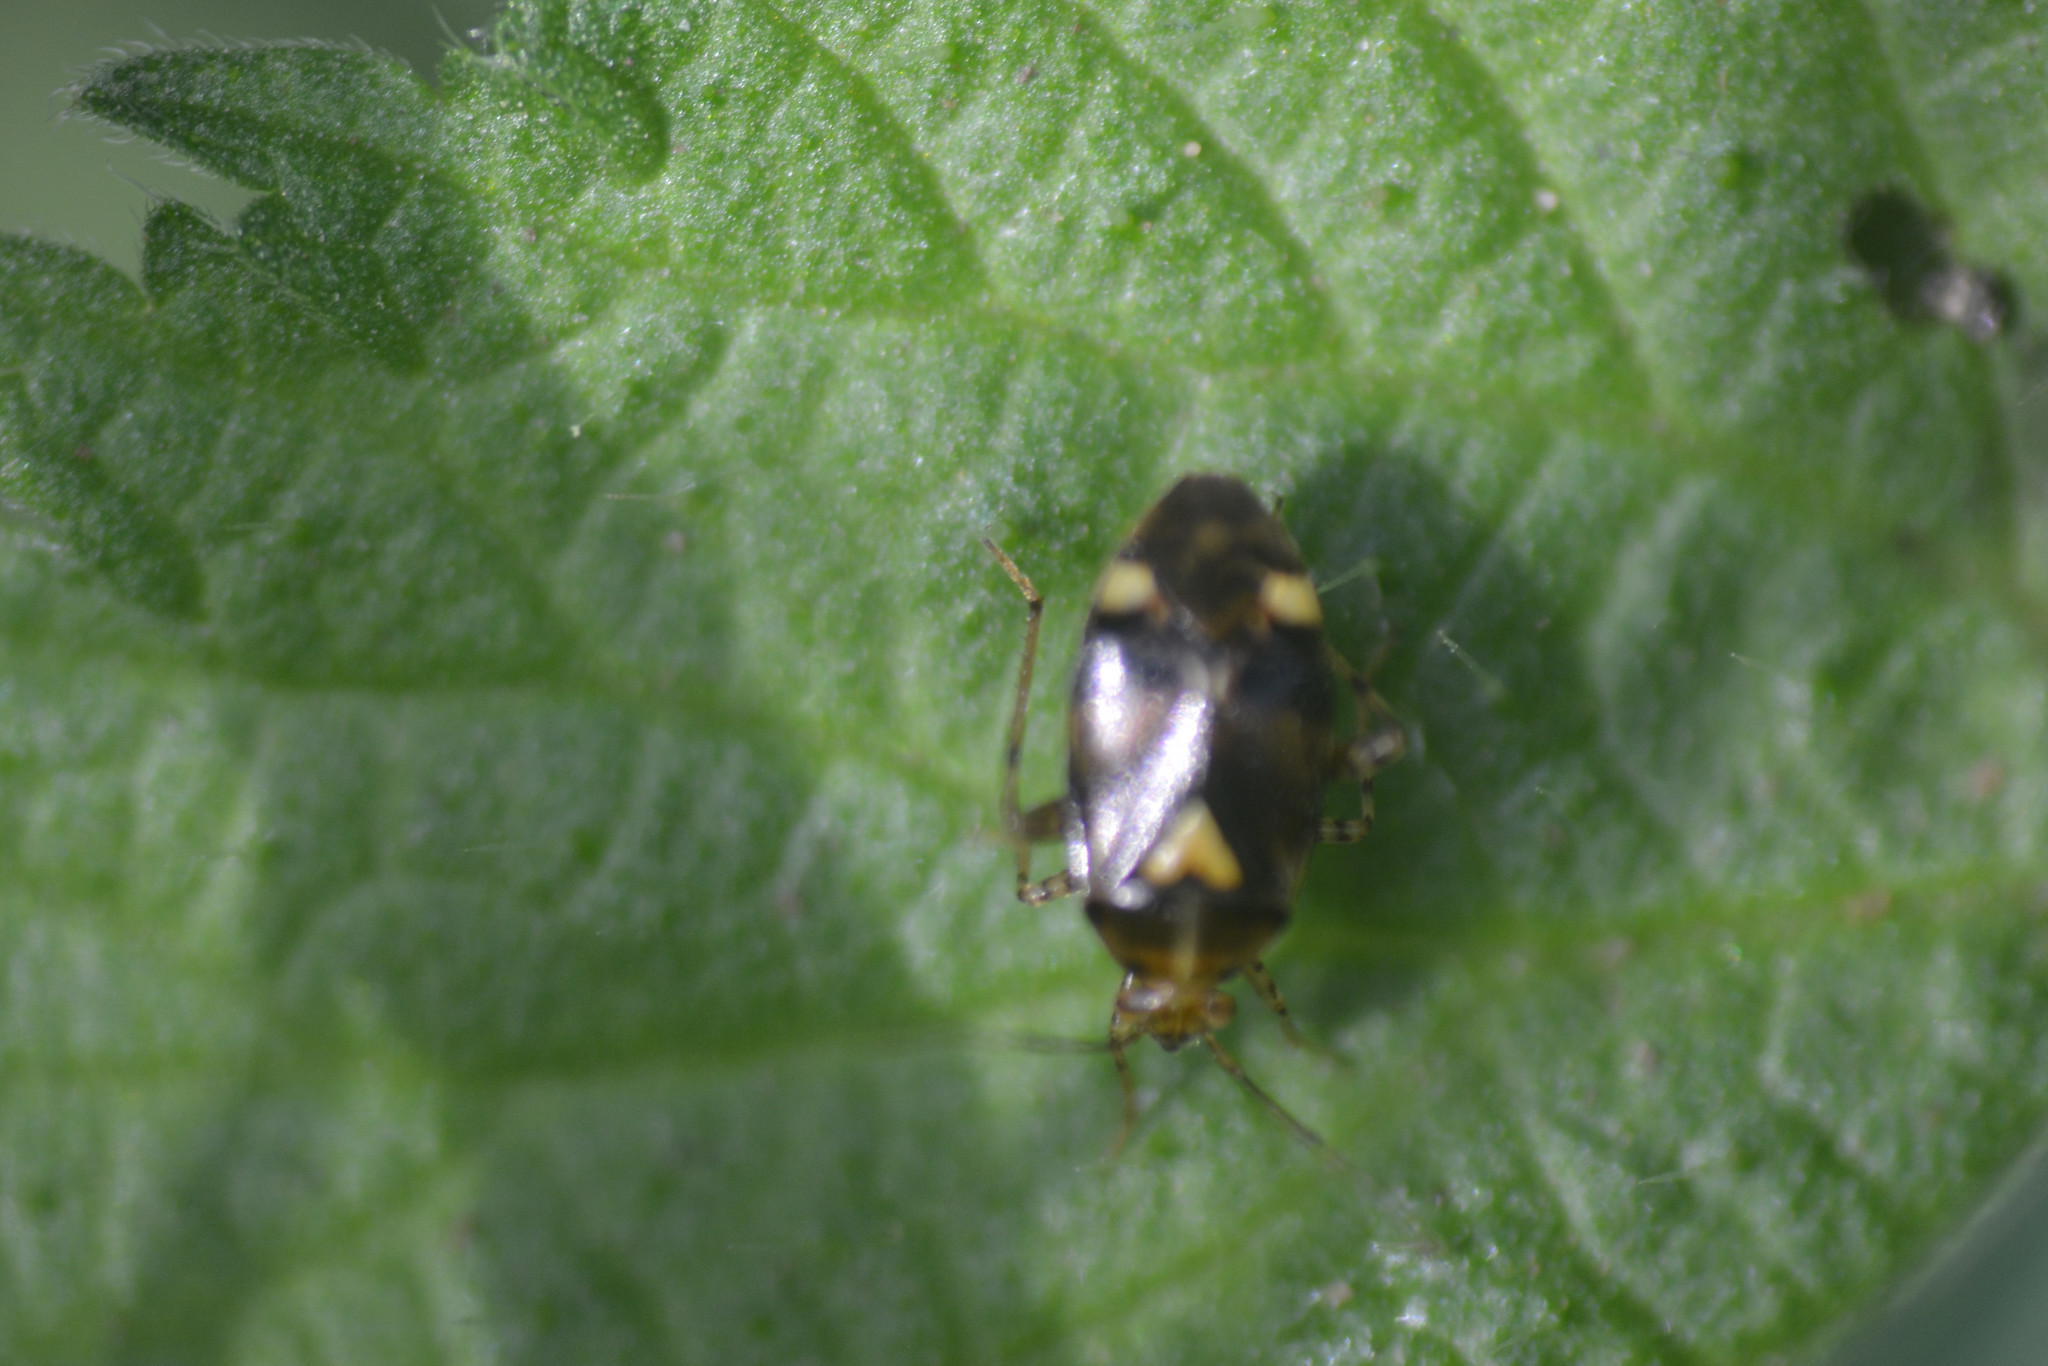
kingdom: Animalia
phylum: Arthropoda
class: Insecta
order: Hemiptera
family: Miridae
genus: Liocoris
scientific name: Liocoris tripustulatus
